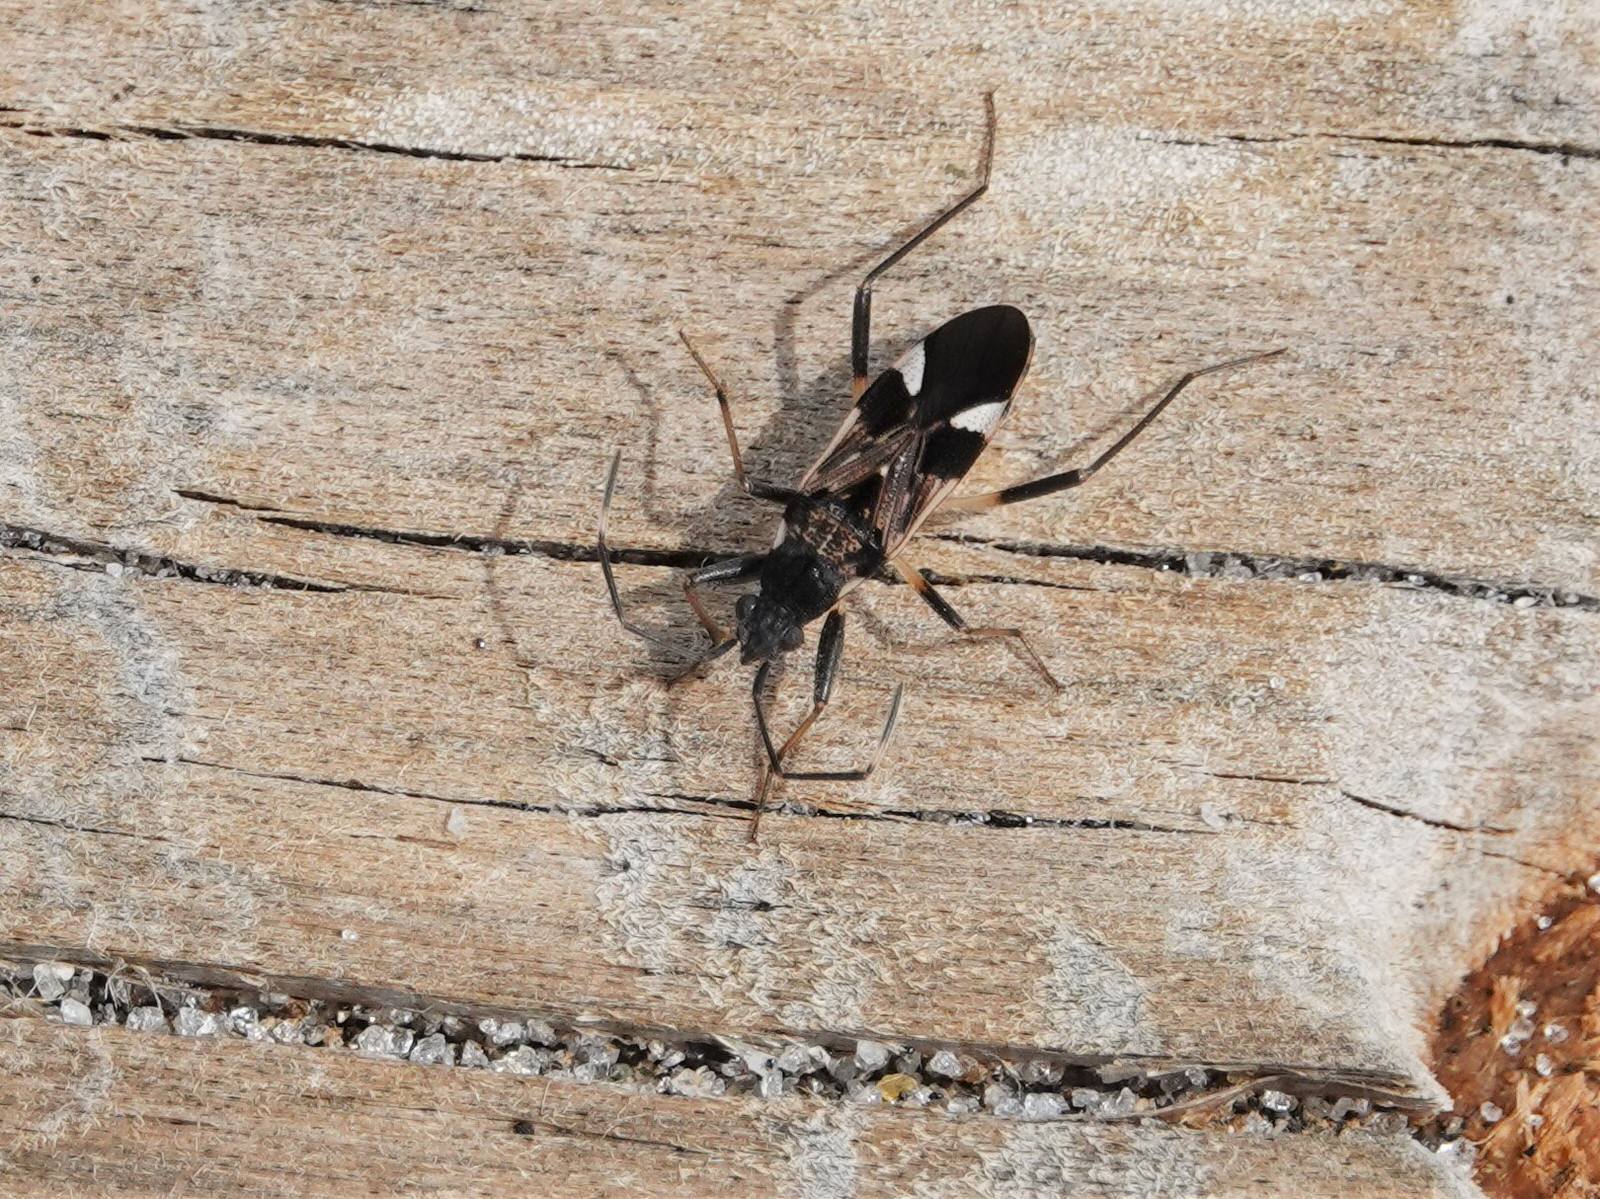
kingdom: Animalia
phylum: Arthropoda
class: Insecta
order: Hemiptera
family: Rhyparochromidae
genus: Dieuches
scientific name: Dieuches notatus
